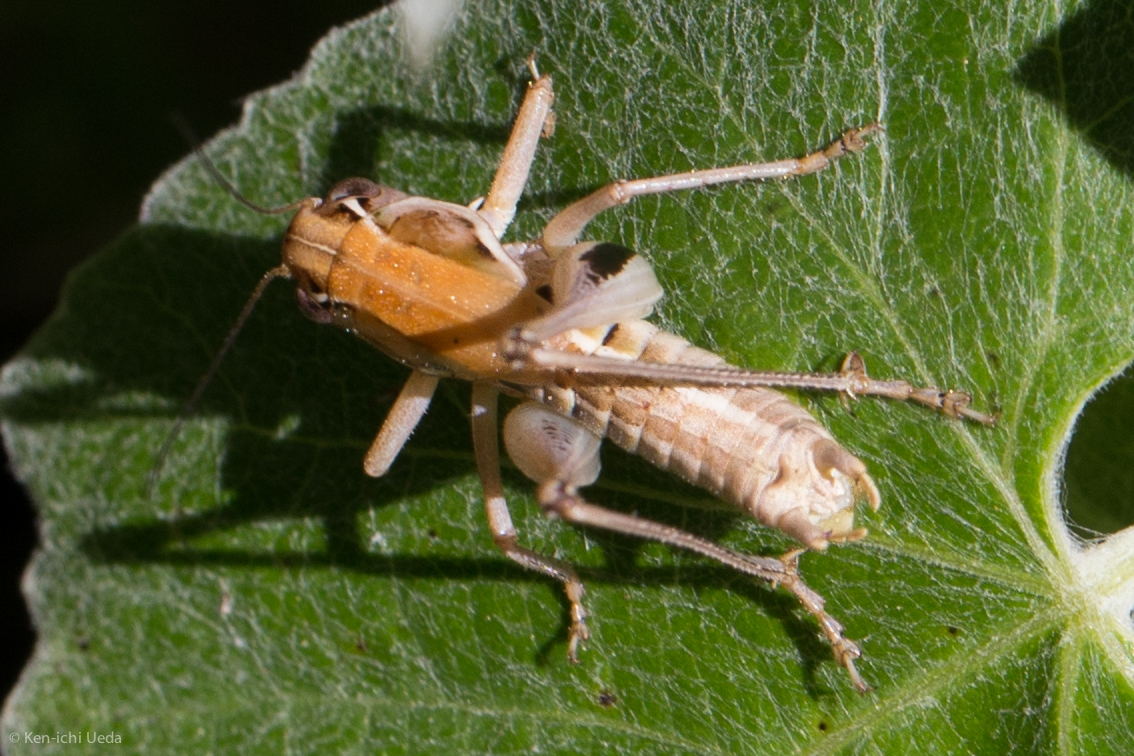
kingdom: Animalia
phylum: Arthropoda
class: Insecta
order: Orthoptera
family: Tettigoniidae
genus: Decticita
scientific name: Decticita brevicauda
